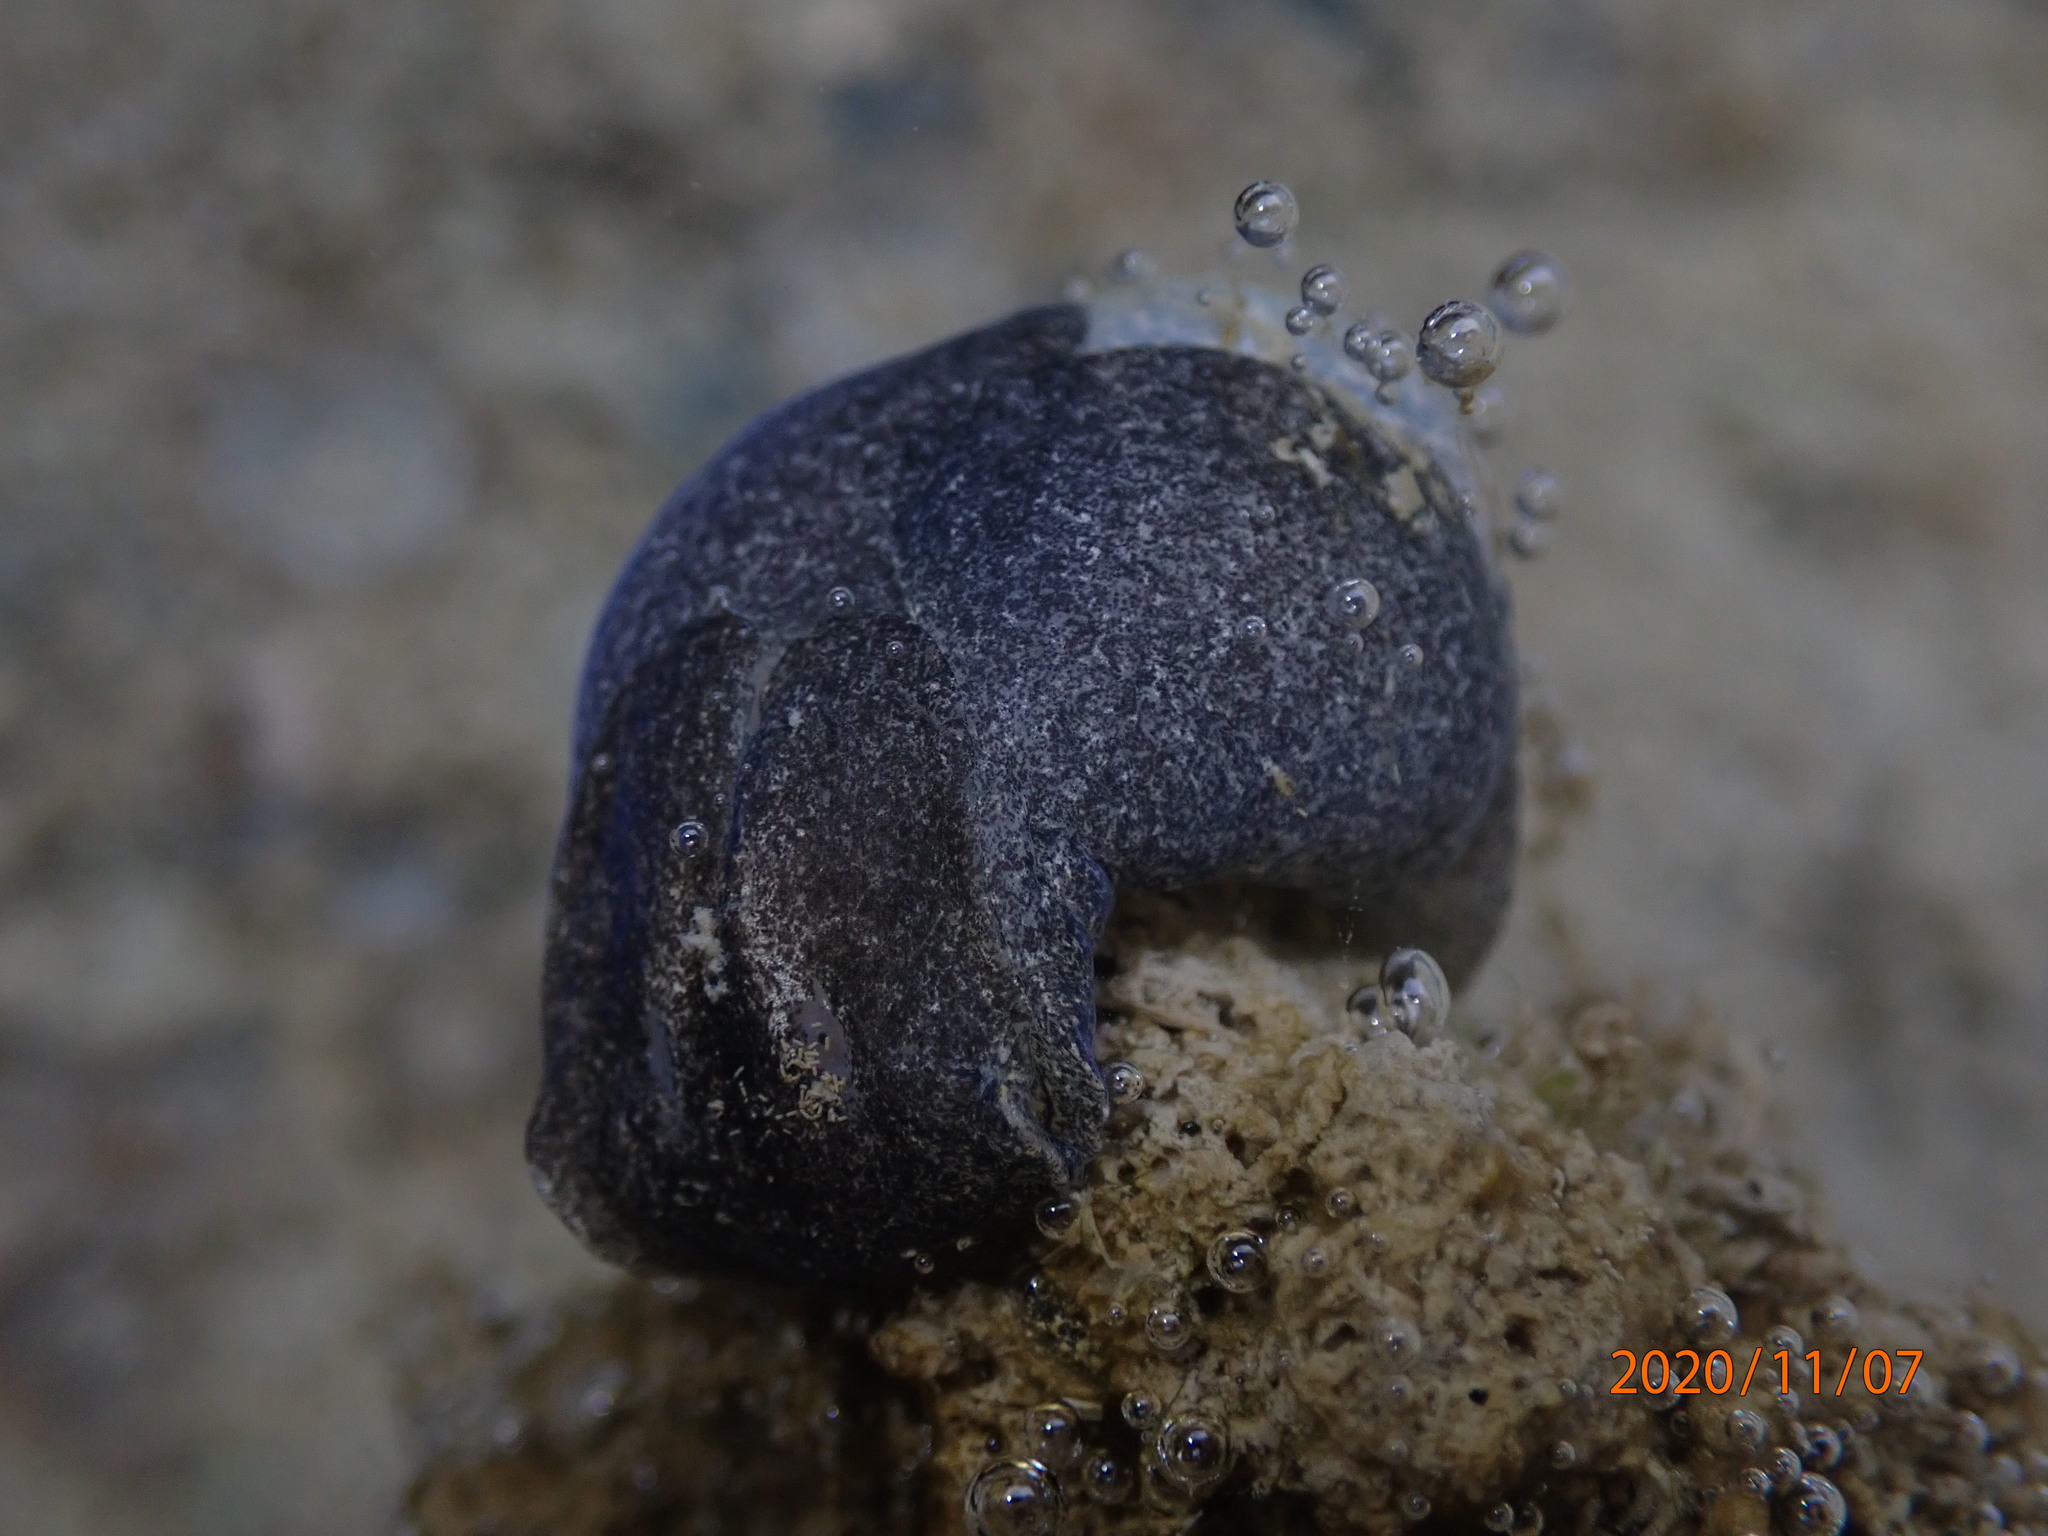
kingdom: Animalia
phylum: Mollusca
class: Gastropoda
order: Cephalaspidea
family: Haminoeidae
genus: Papawera
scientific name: Papawera zelandiae
